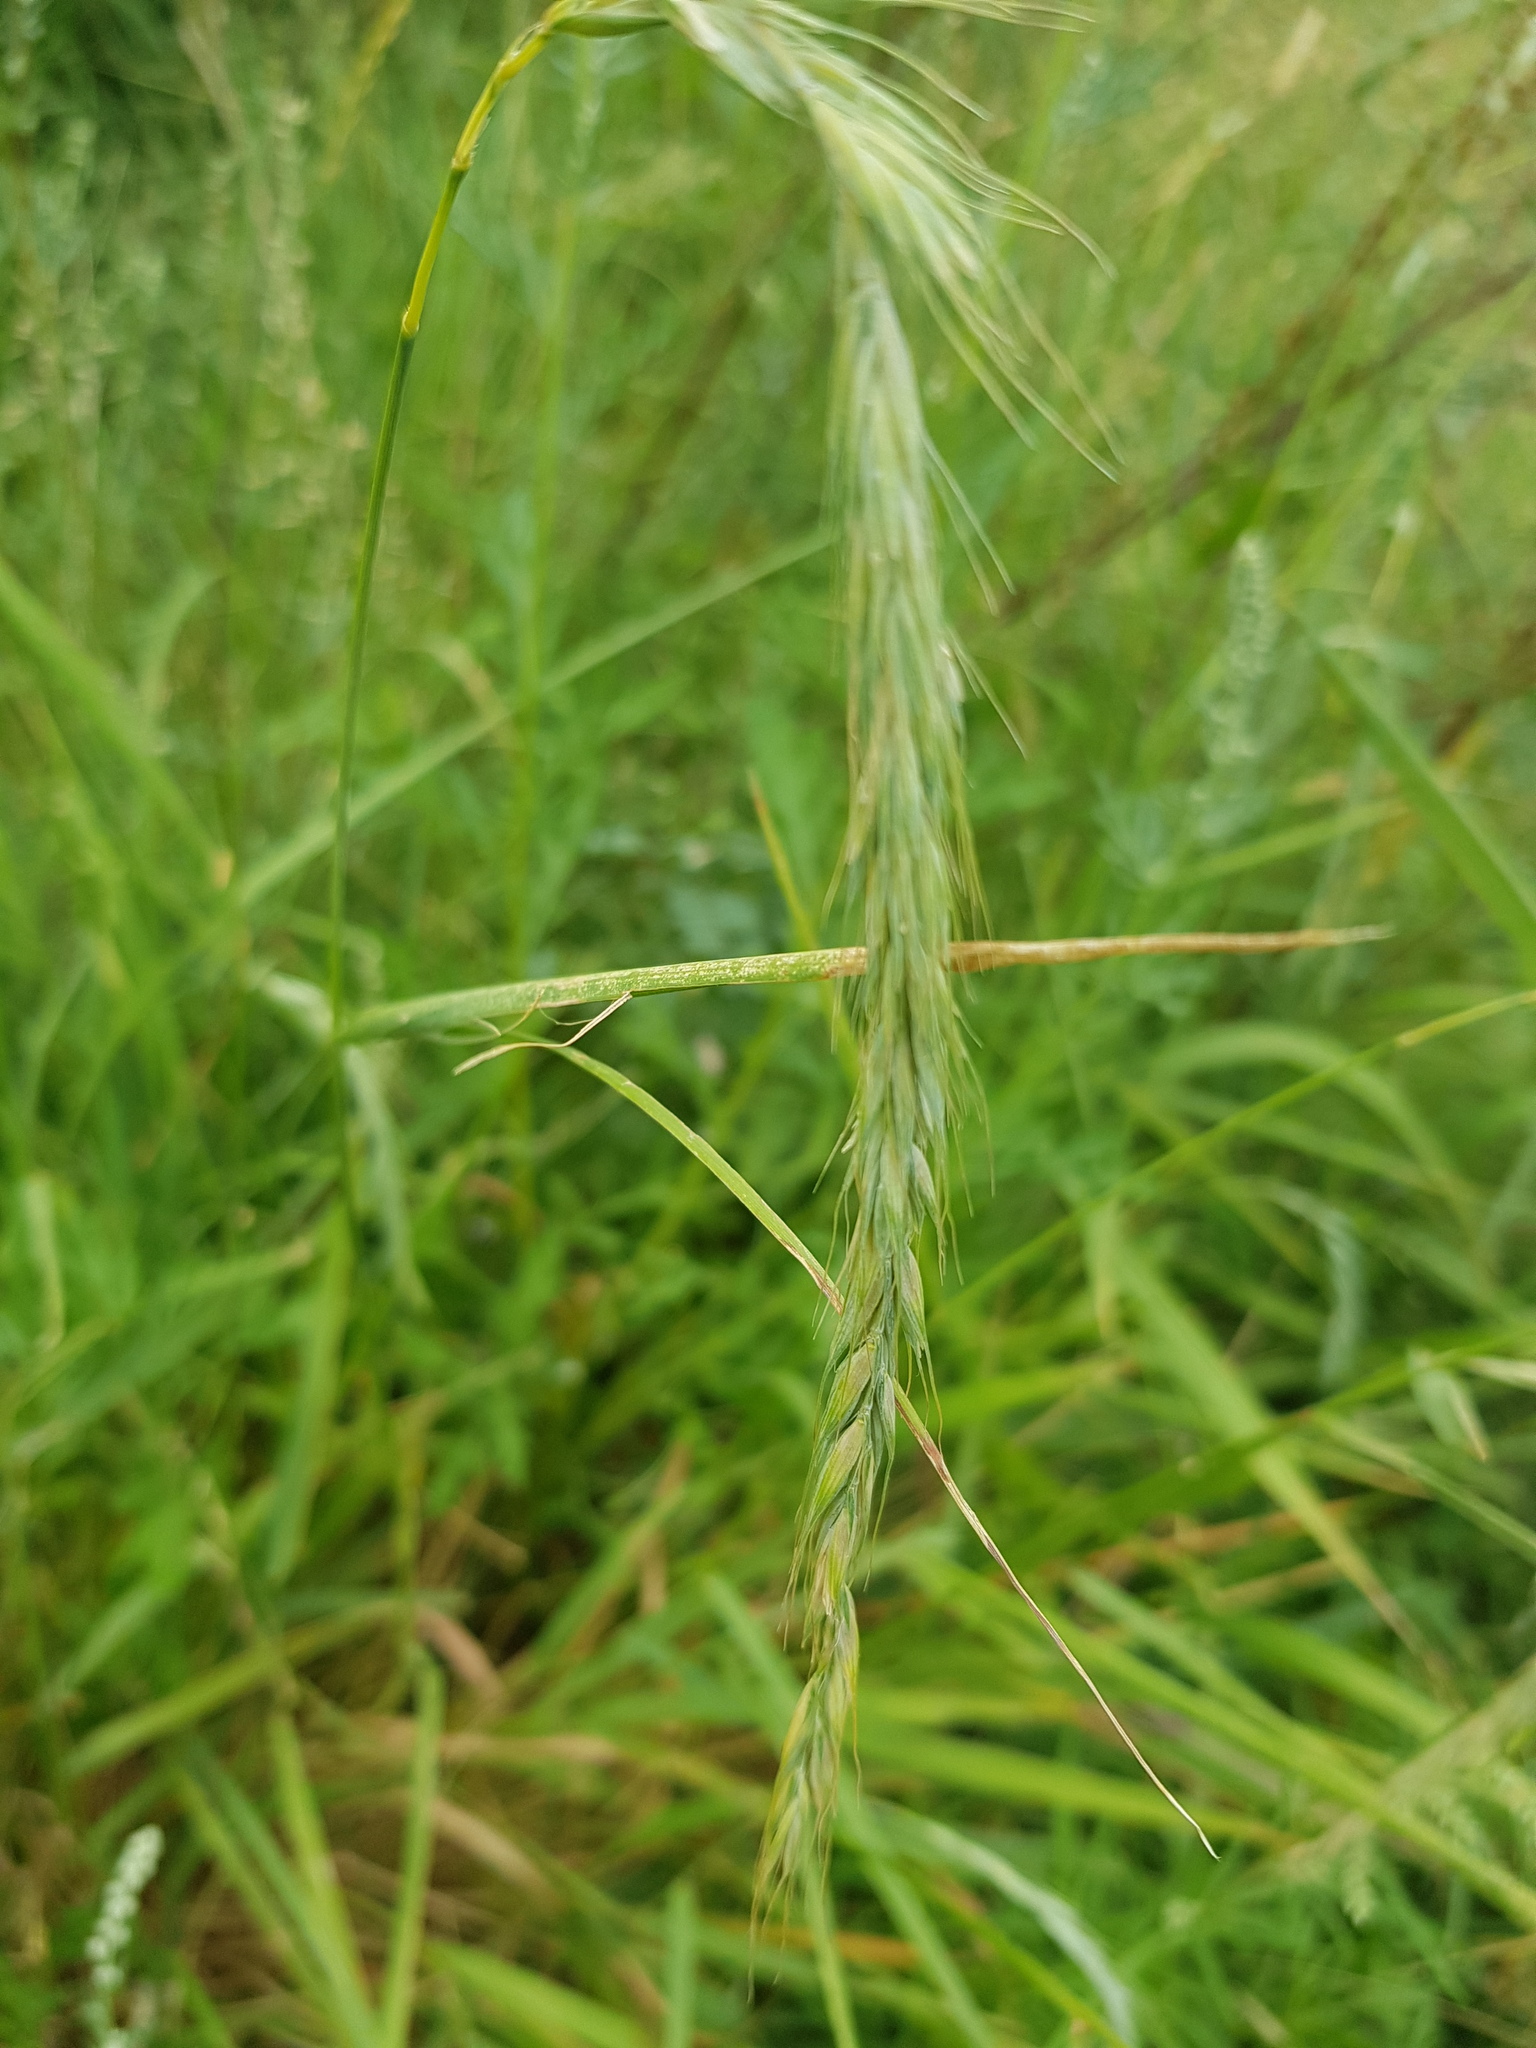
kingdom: Plantae
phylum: Tracheophyta
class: Liliopsida
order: Poales
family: Poaceae
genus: Elymus
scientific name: Elymus sibiricus
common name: Siberian wildrye
